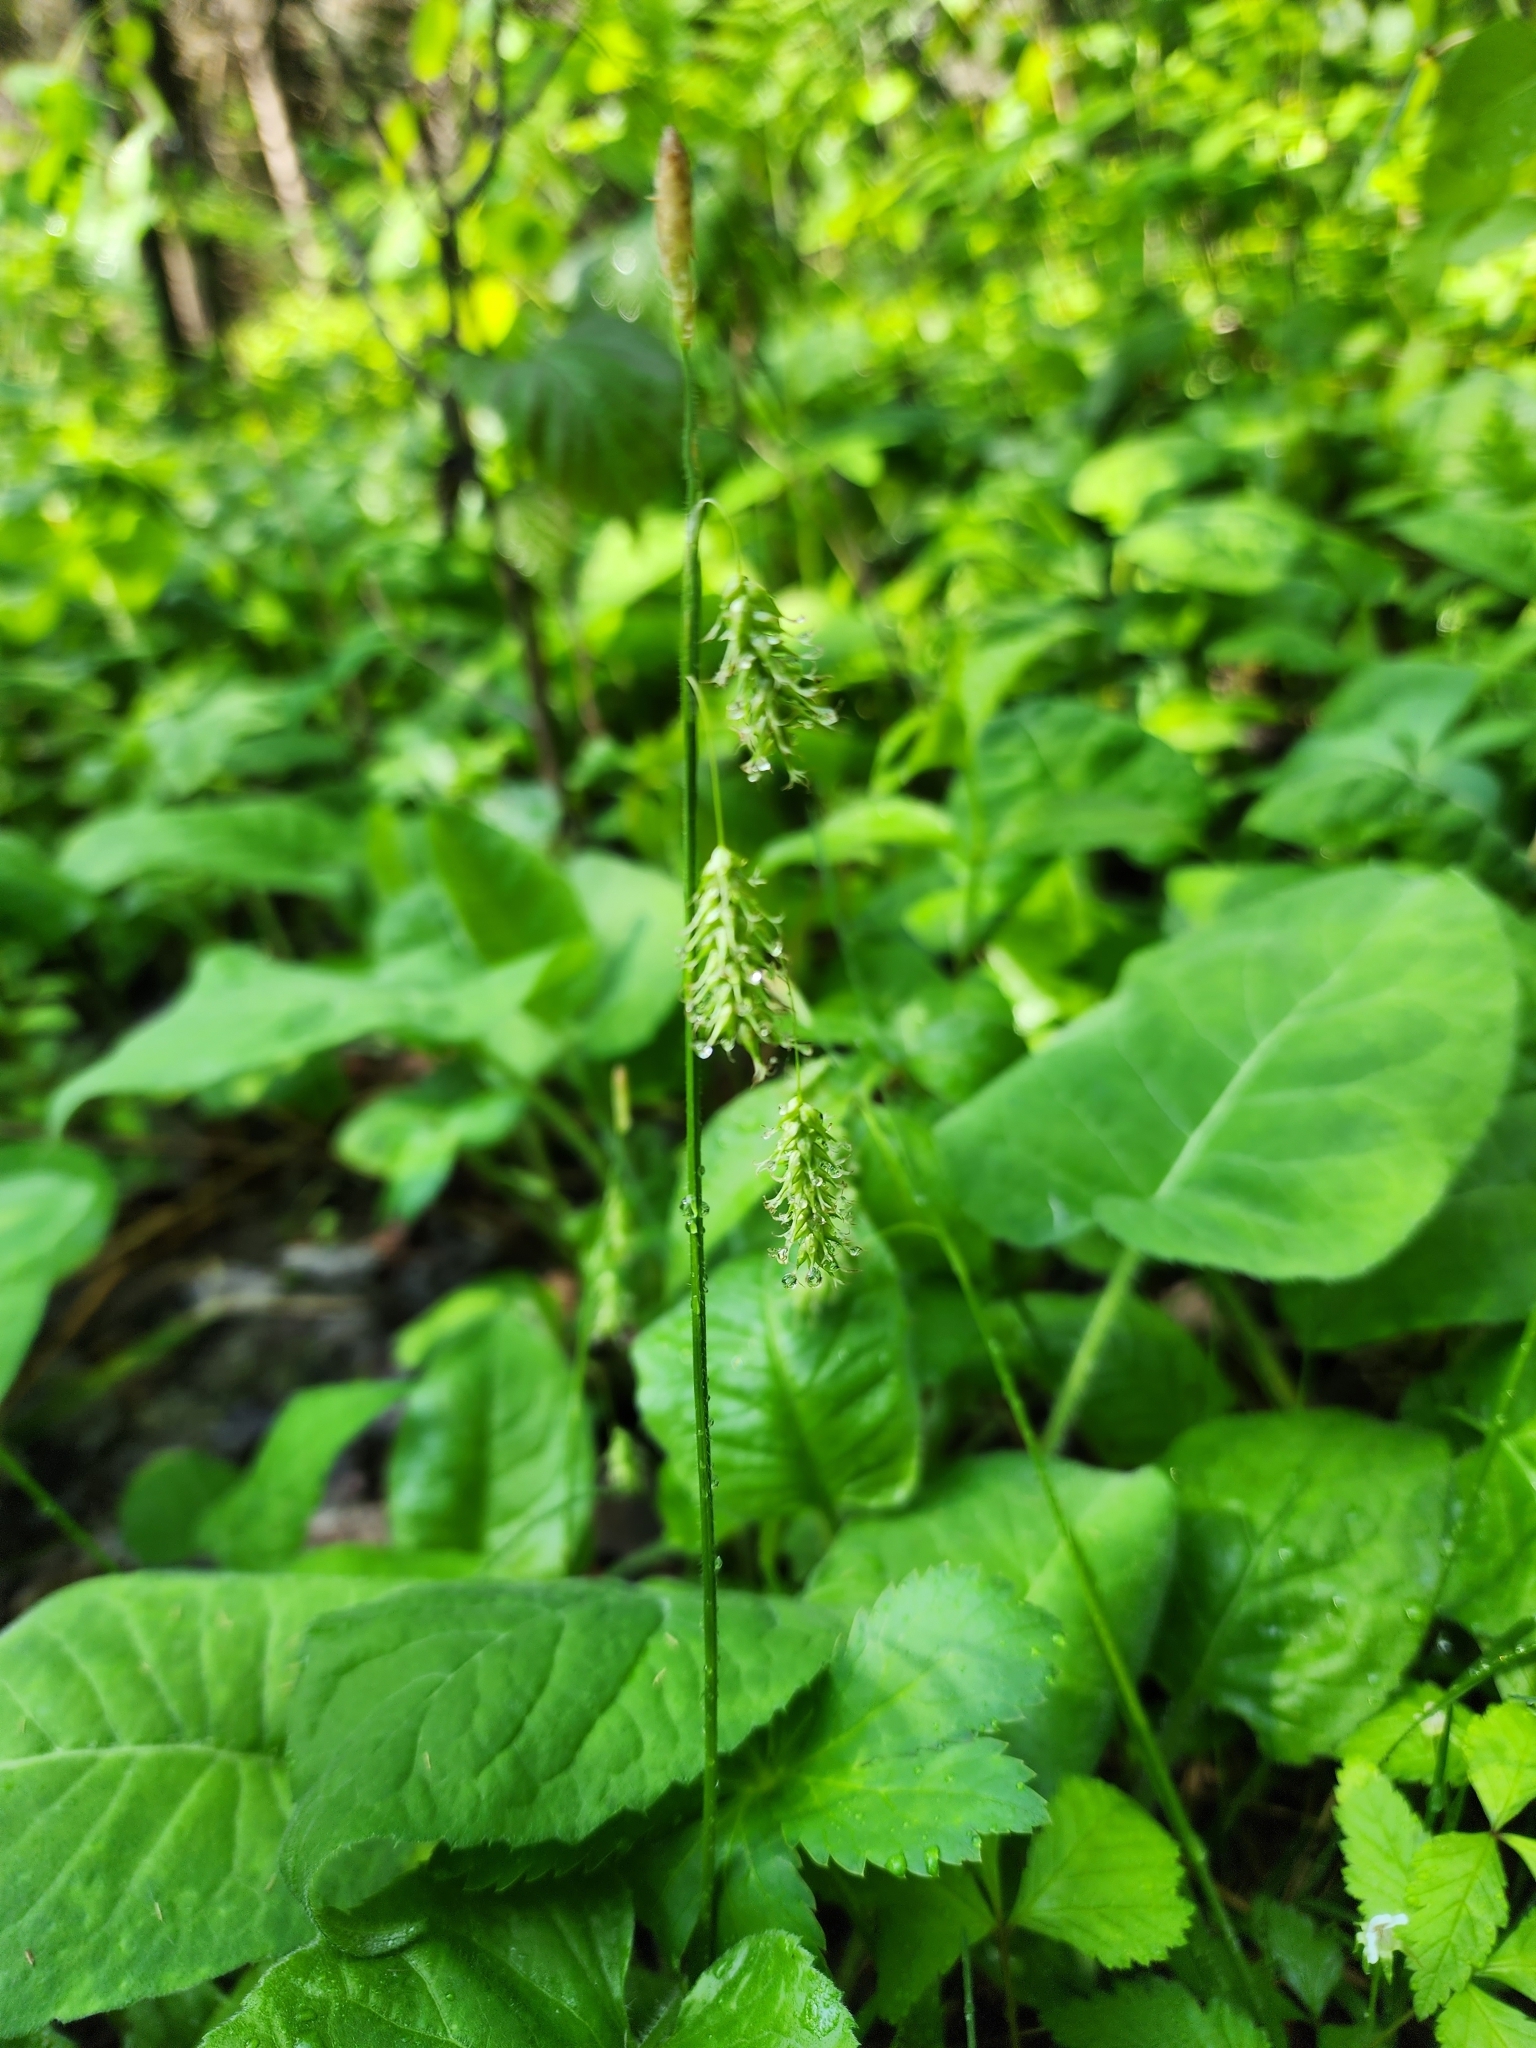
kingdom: Plantae
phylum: Tracheophyta
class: Liliopsida
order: Poales
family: Cyperaceae
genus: Carex
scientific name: Carex castanea
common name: Chestnut sedge
